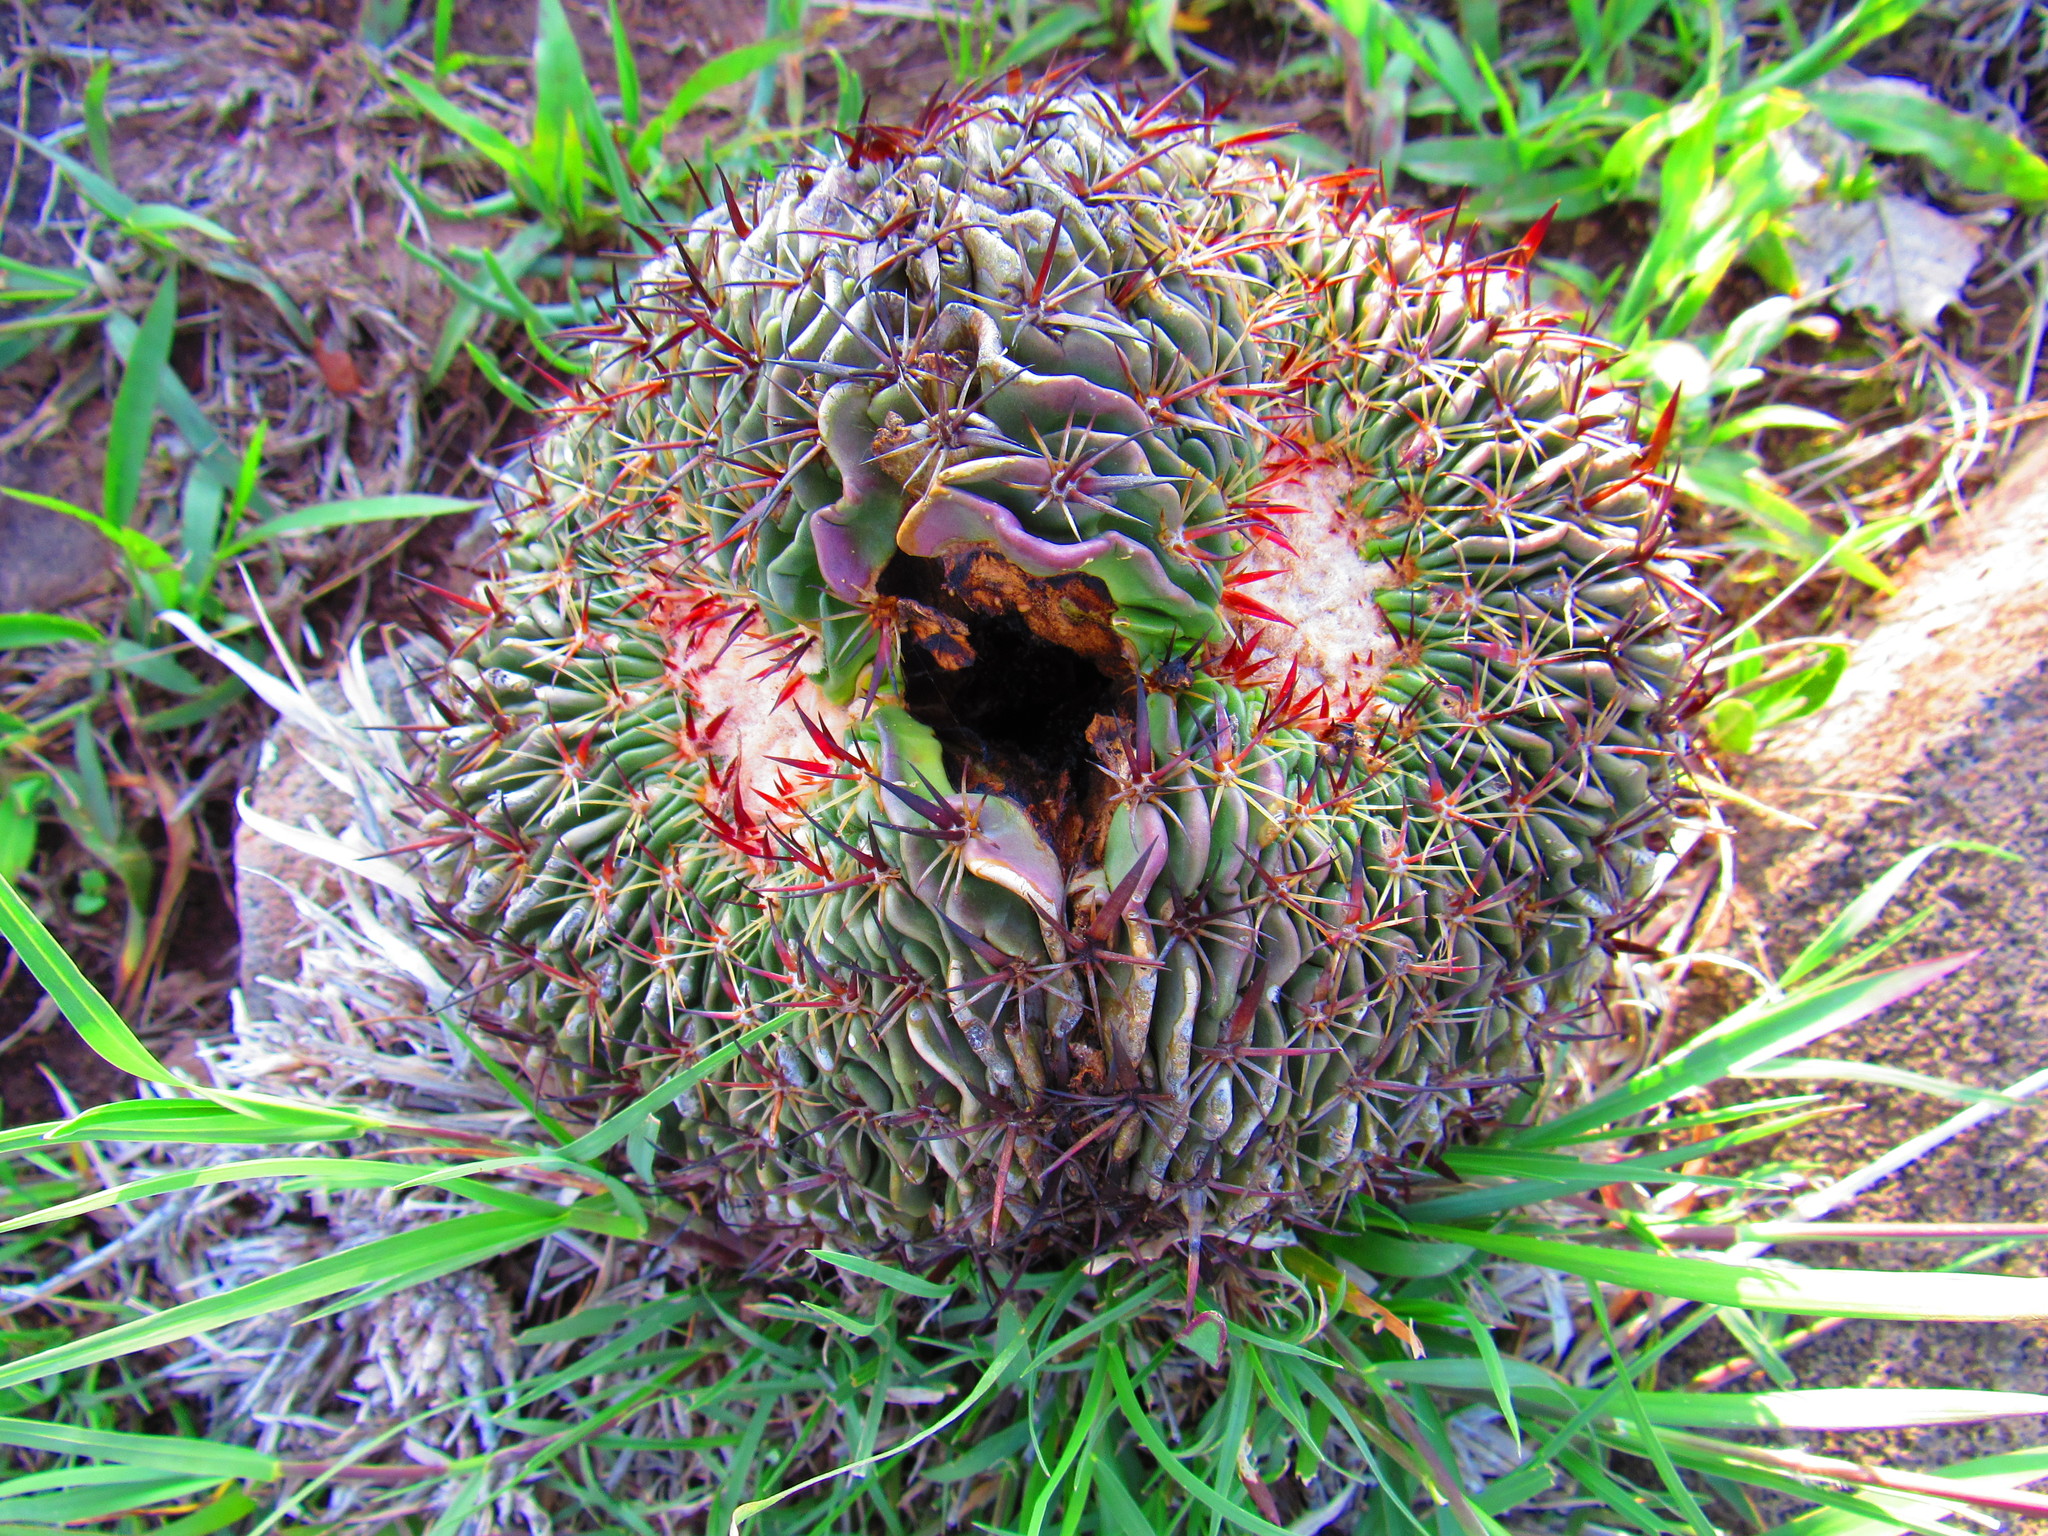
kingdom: Plantae
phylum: Tracheophyta
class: Magnoliopsida
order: Caryophyllales
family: Cactaceae
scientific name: Cactaceae
